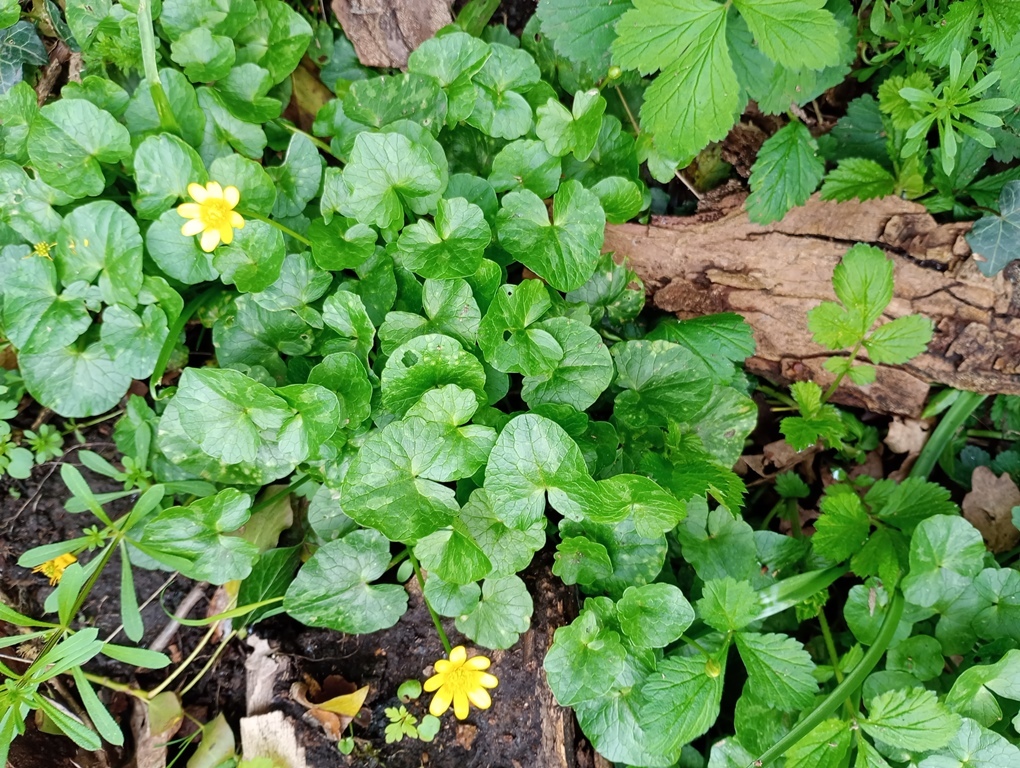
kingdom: Plantae
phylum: Tracheophyta
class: Magnoliopsida
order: Ranunculales
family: Ranunculaceae
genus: Ficaria
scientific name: Ficaria verna
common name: Lesser celandine
